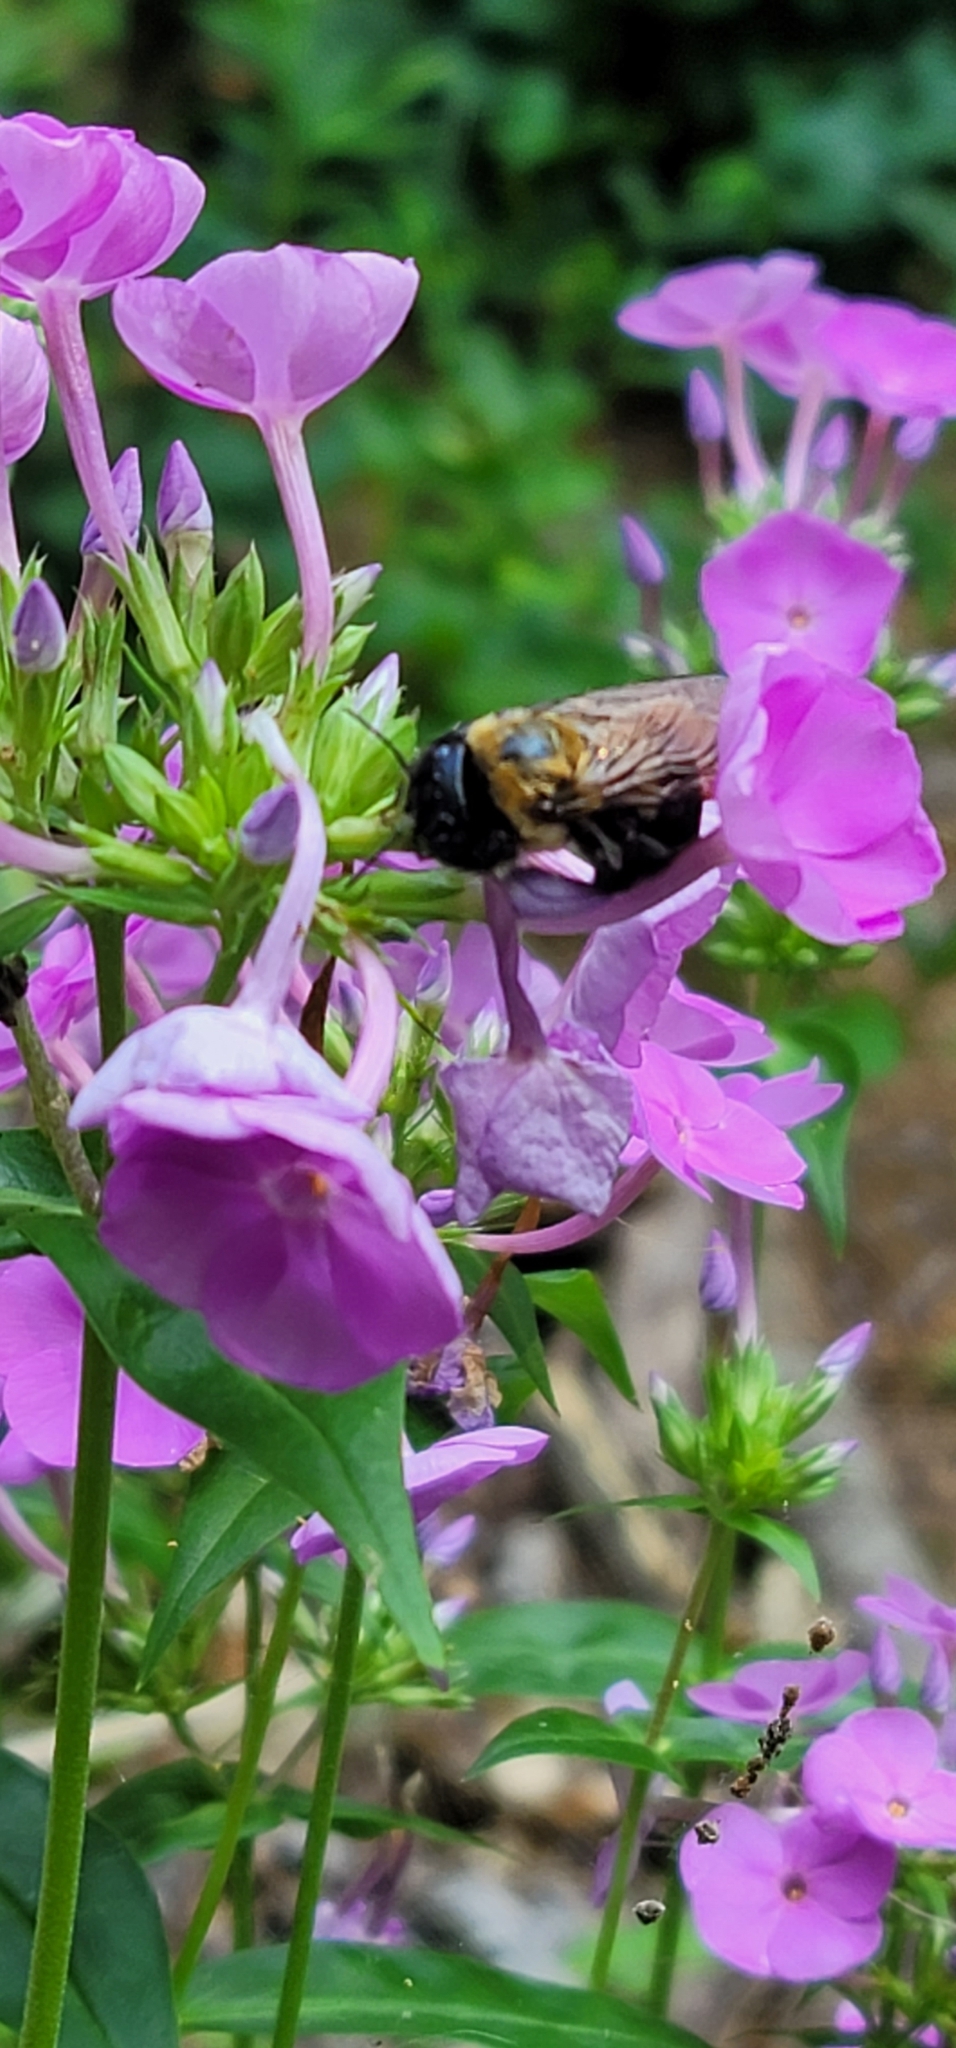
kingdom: Animalia
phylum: Arthropoda
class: Insecta
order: Hymenoptera
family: Apidae
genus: Xylocopa
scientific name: Xylocopa virginica
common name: Carpenter bee
